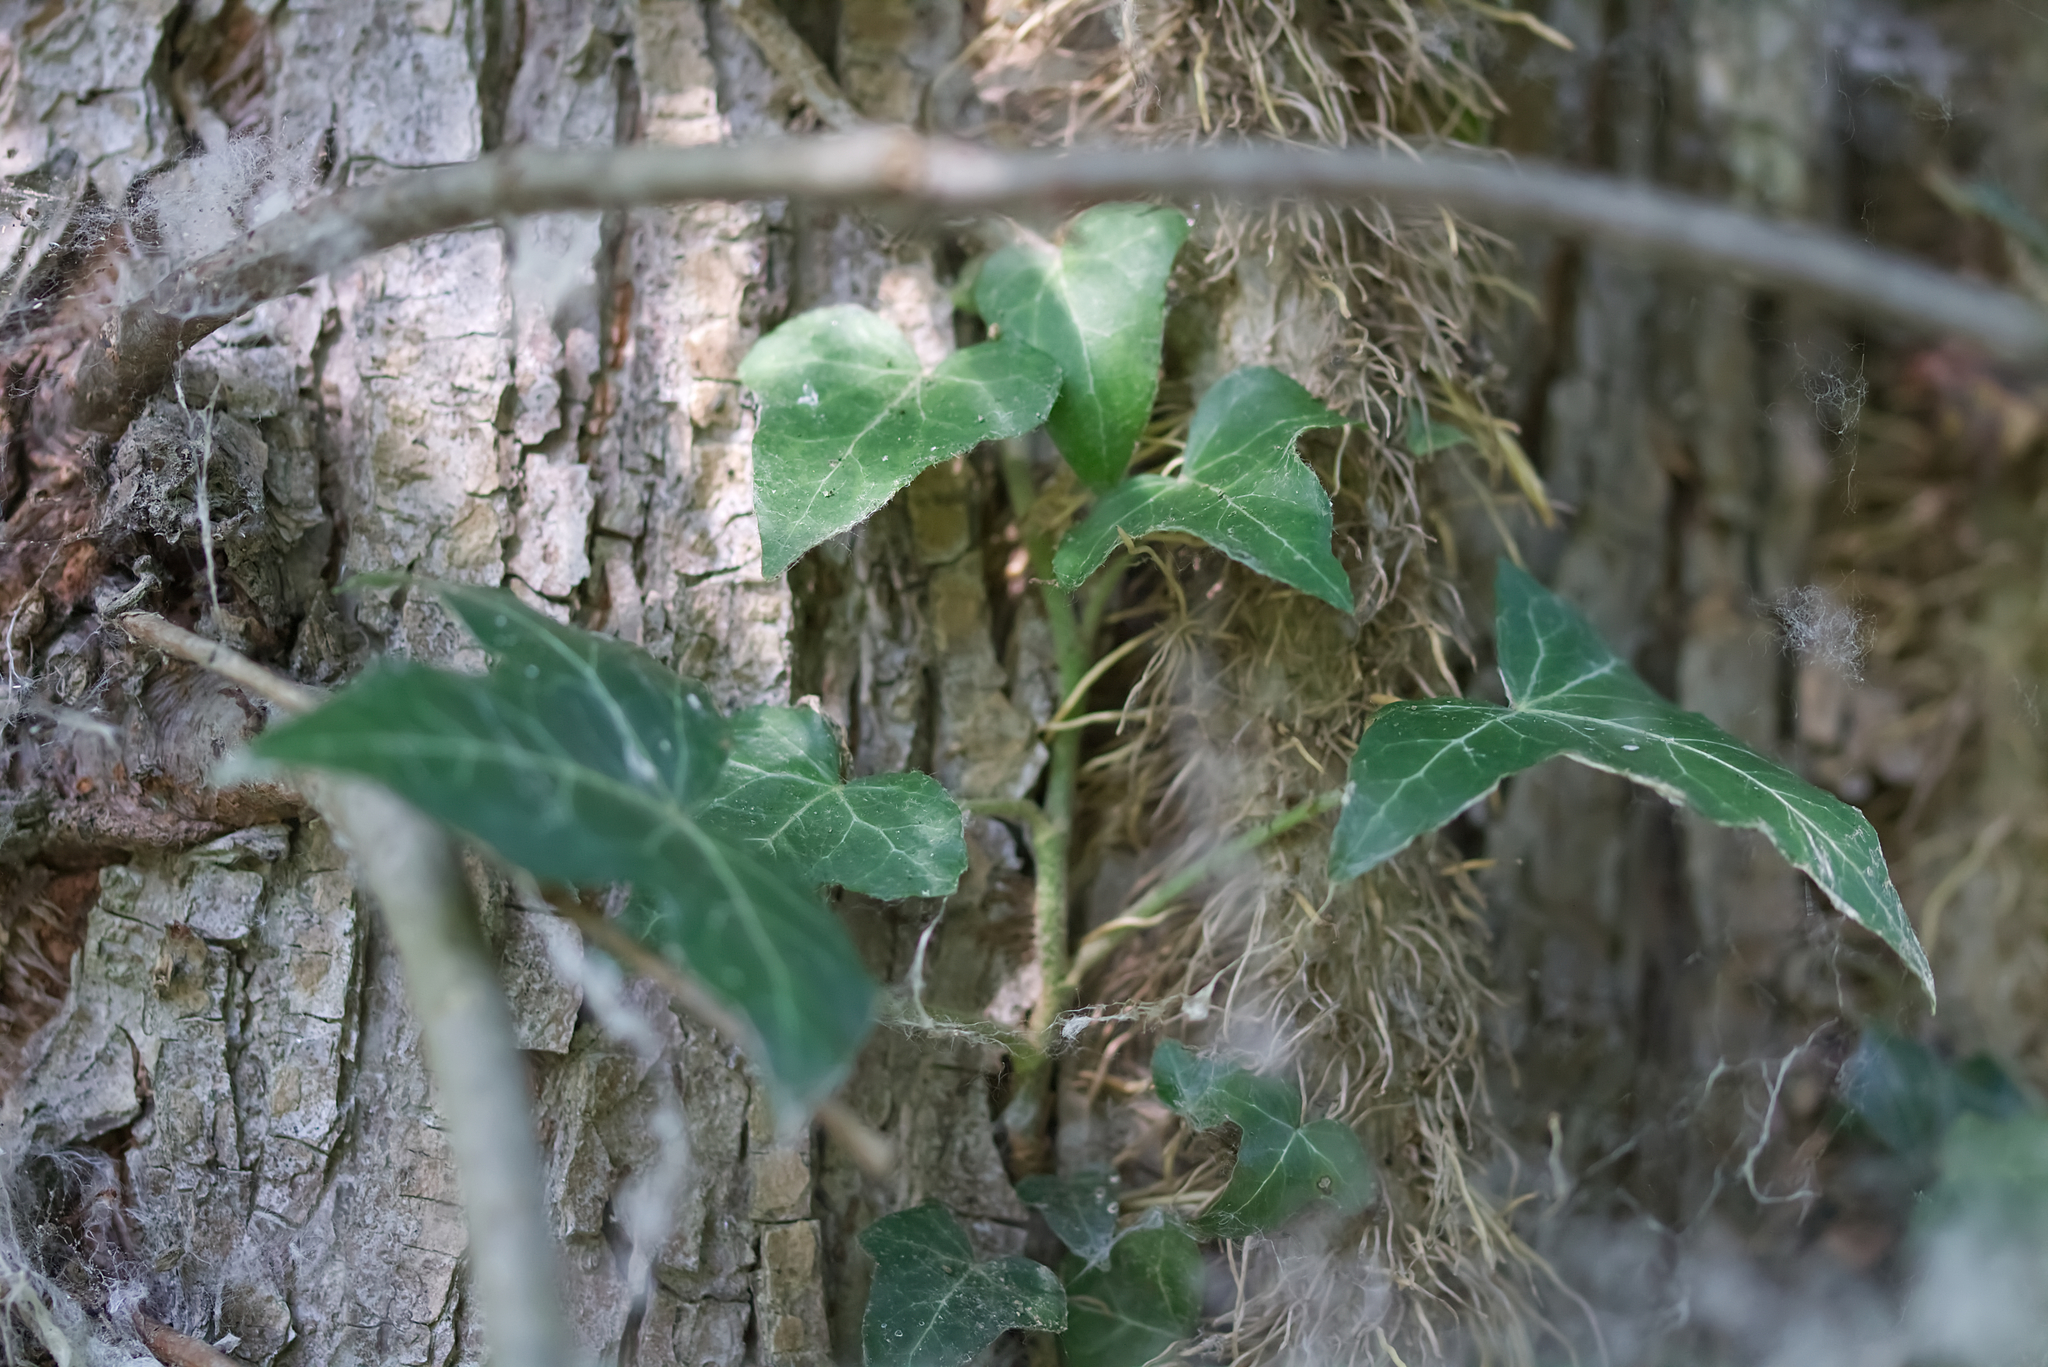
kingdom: Plantae
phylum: Tracheophyta
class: Magnoliopsida
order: Apiales
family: Araliaceae
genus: Hedera
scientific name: Hedera helix
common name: Ivy
